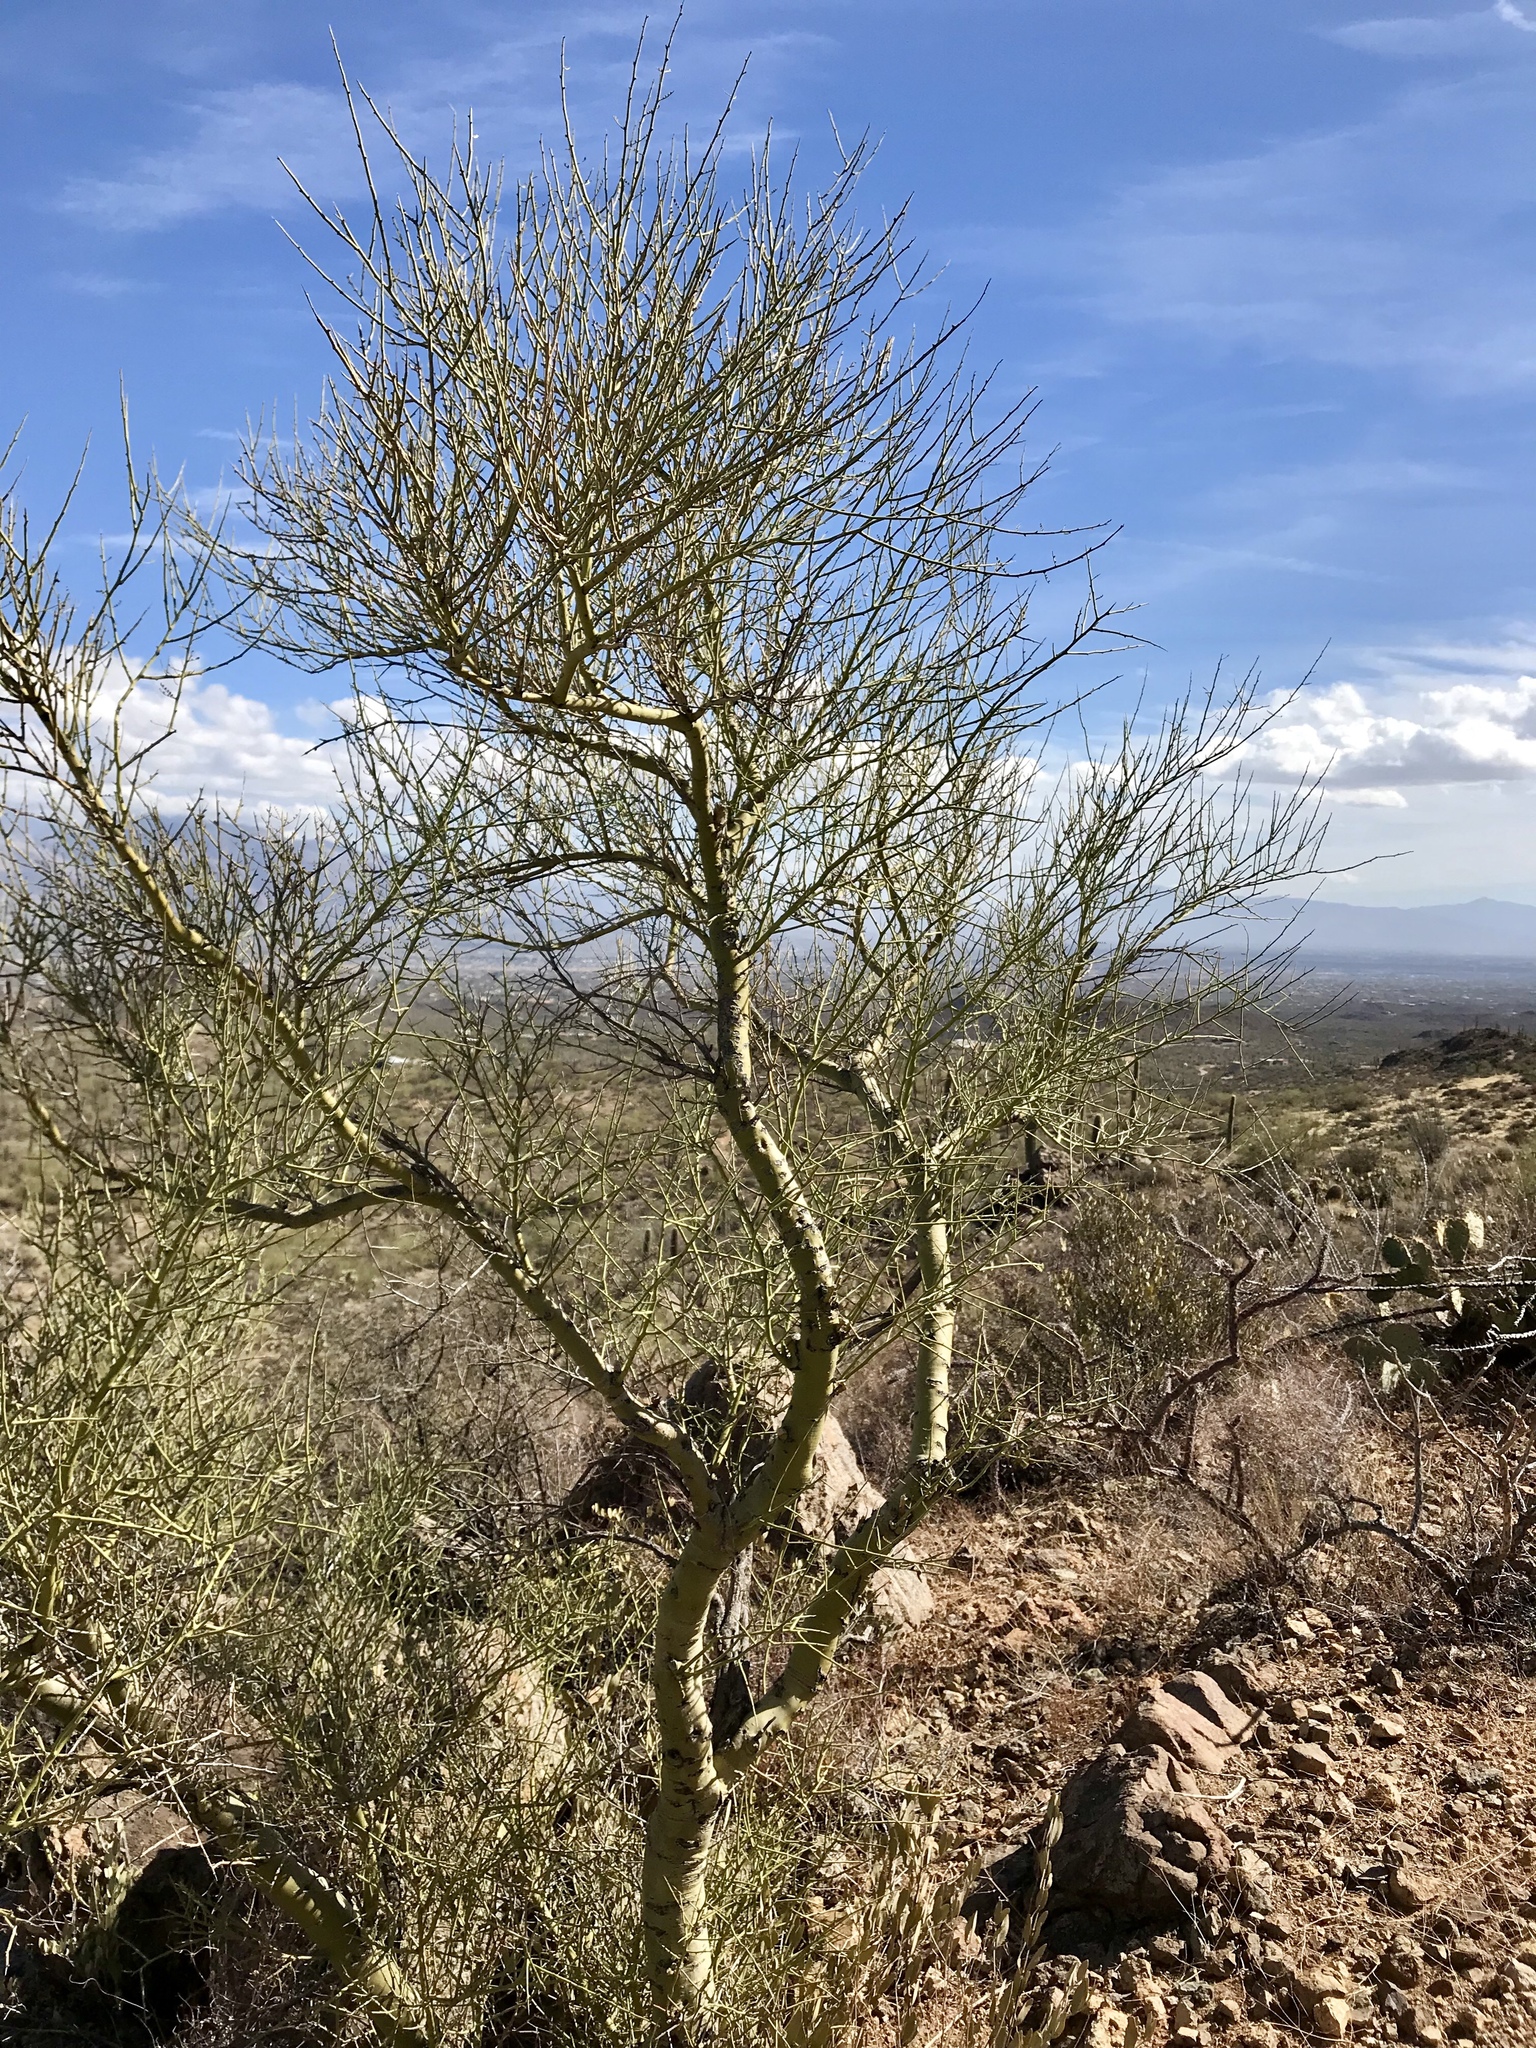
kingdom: Plantae
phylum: Tracheophyta
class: Magnoliopsida
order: Fabales
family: Fabaceae
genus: Parkinsonia
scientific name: Parkinsonia microphylla
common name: Yellow paloverde
